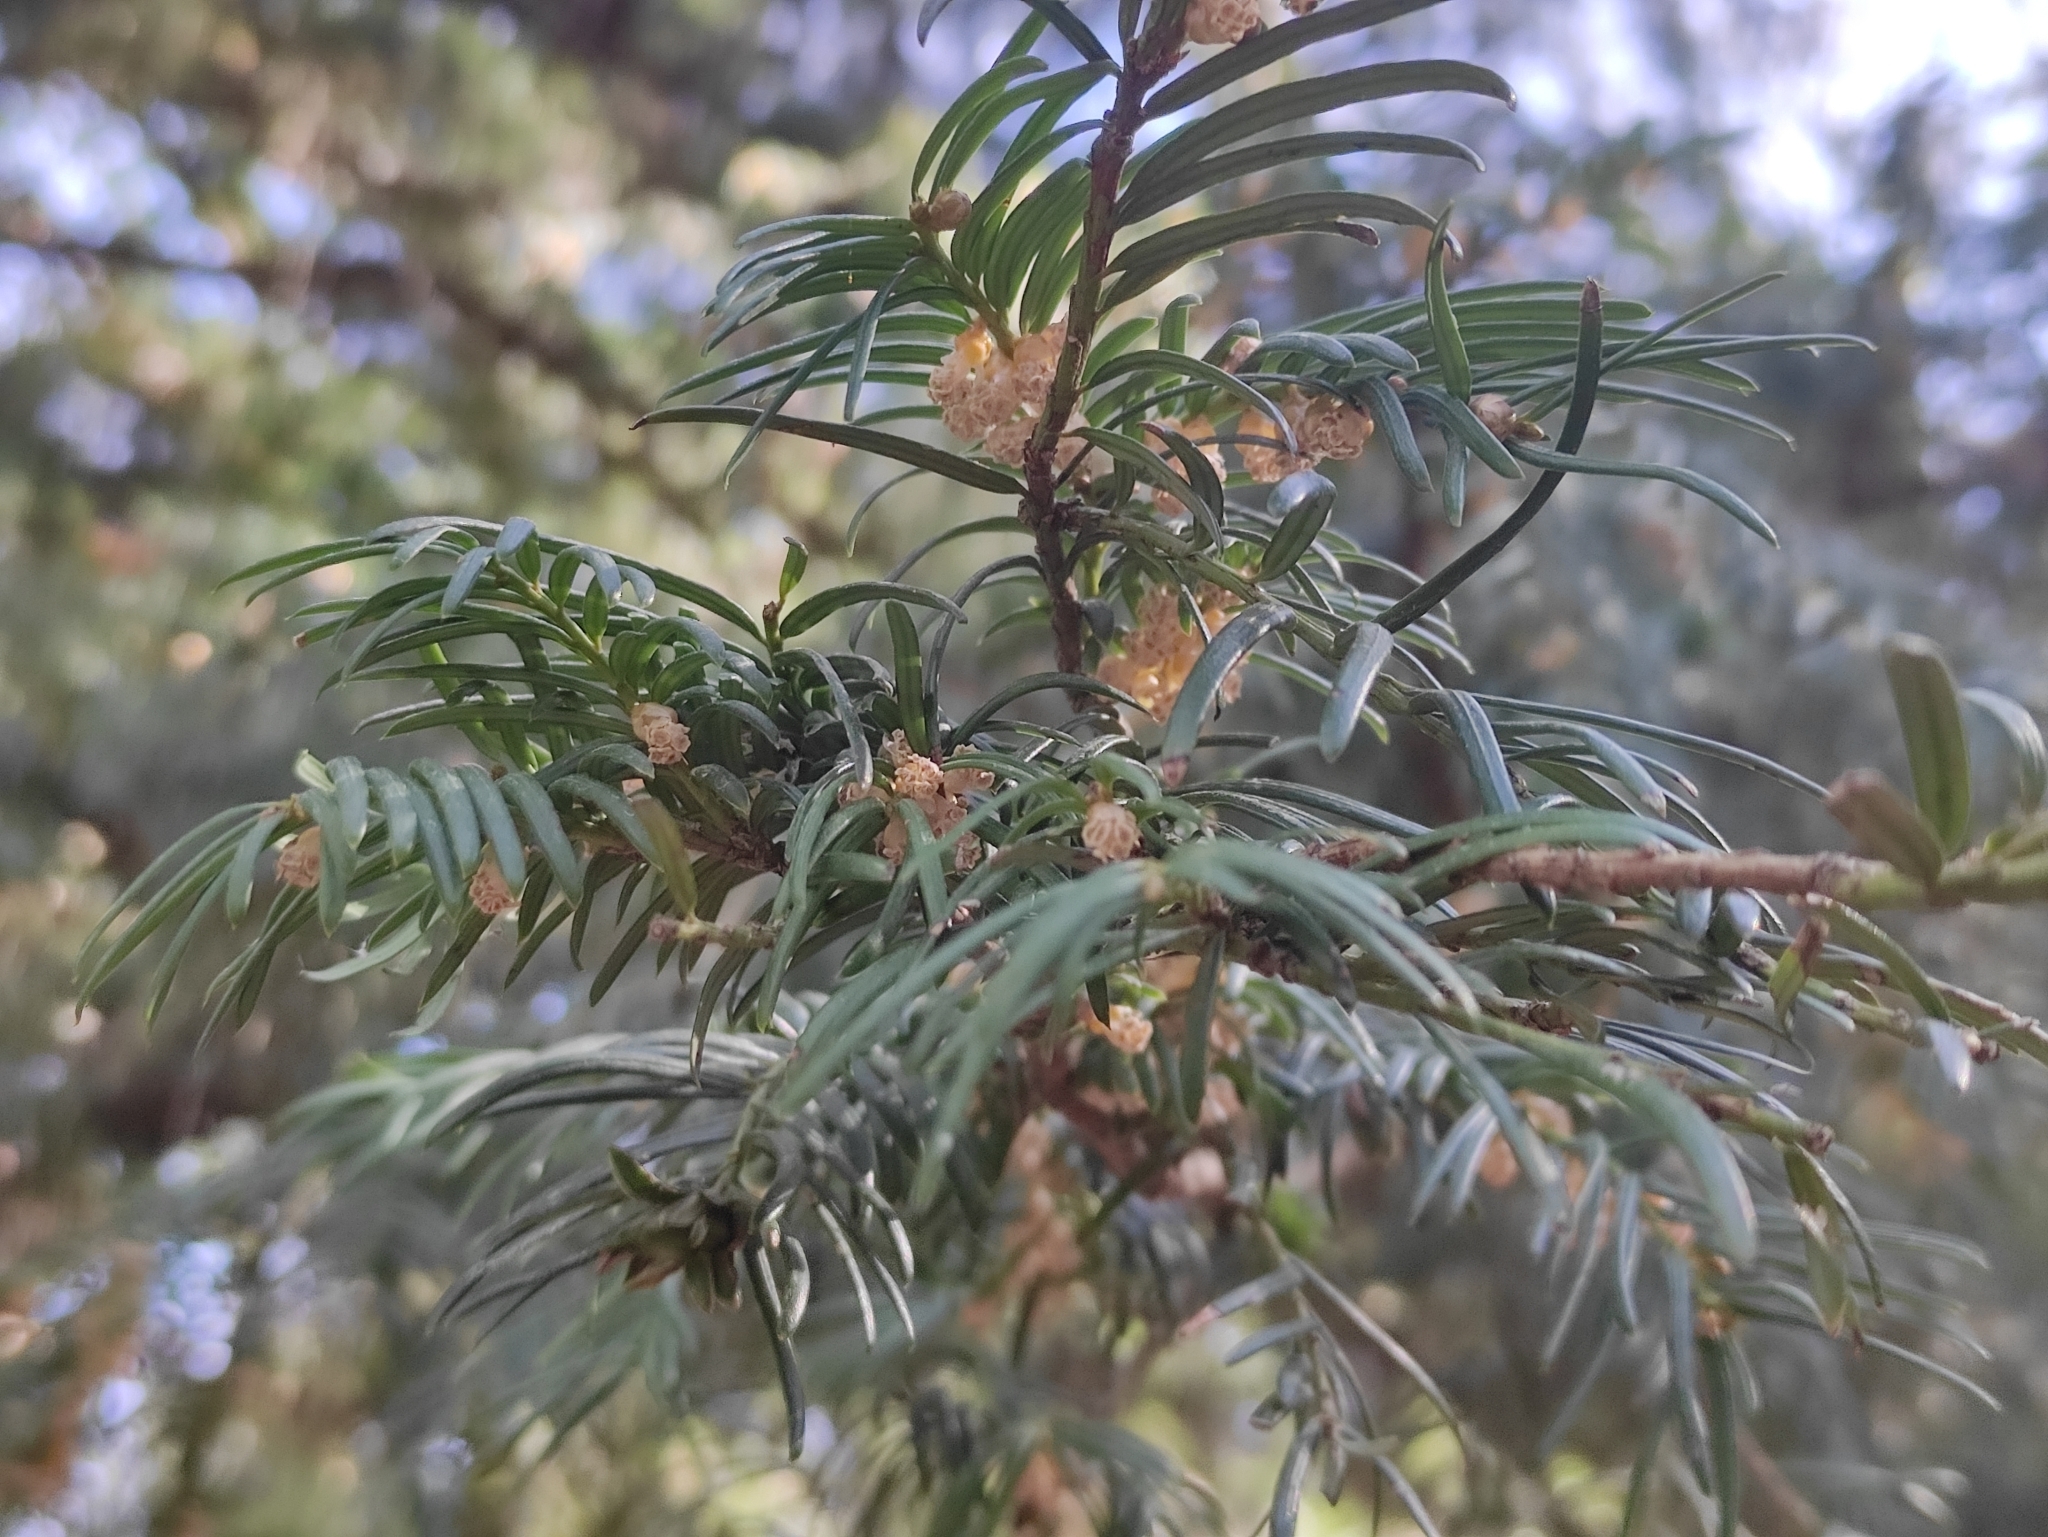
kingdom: Plantae
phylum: Tracheophyta
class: Pinopsida
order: Pinales
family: Taxaceae
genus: Taxus
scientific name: Taxus baccata
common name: Yew
